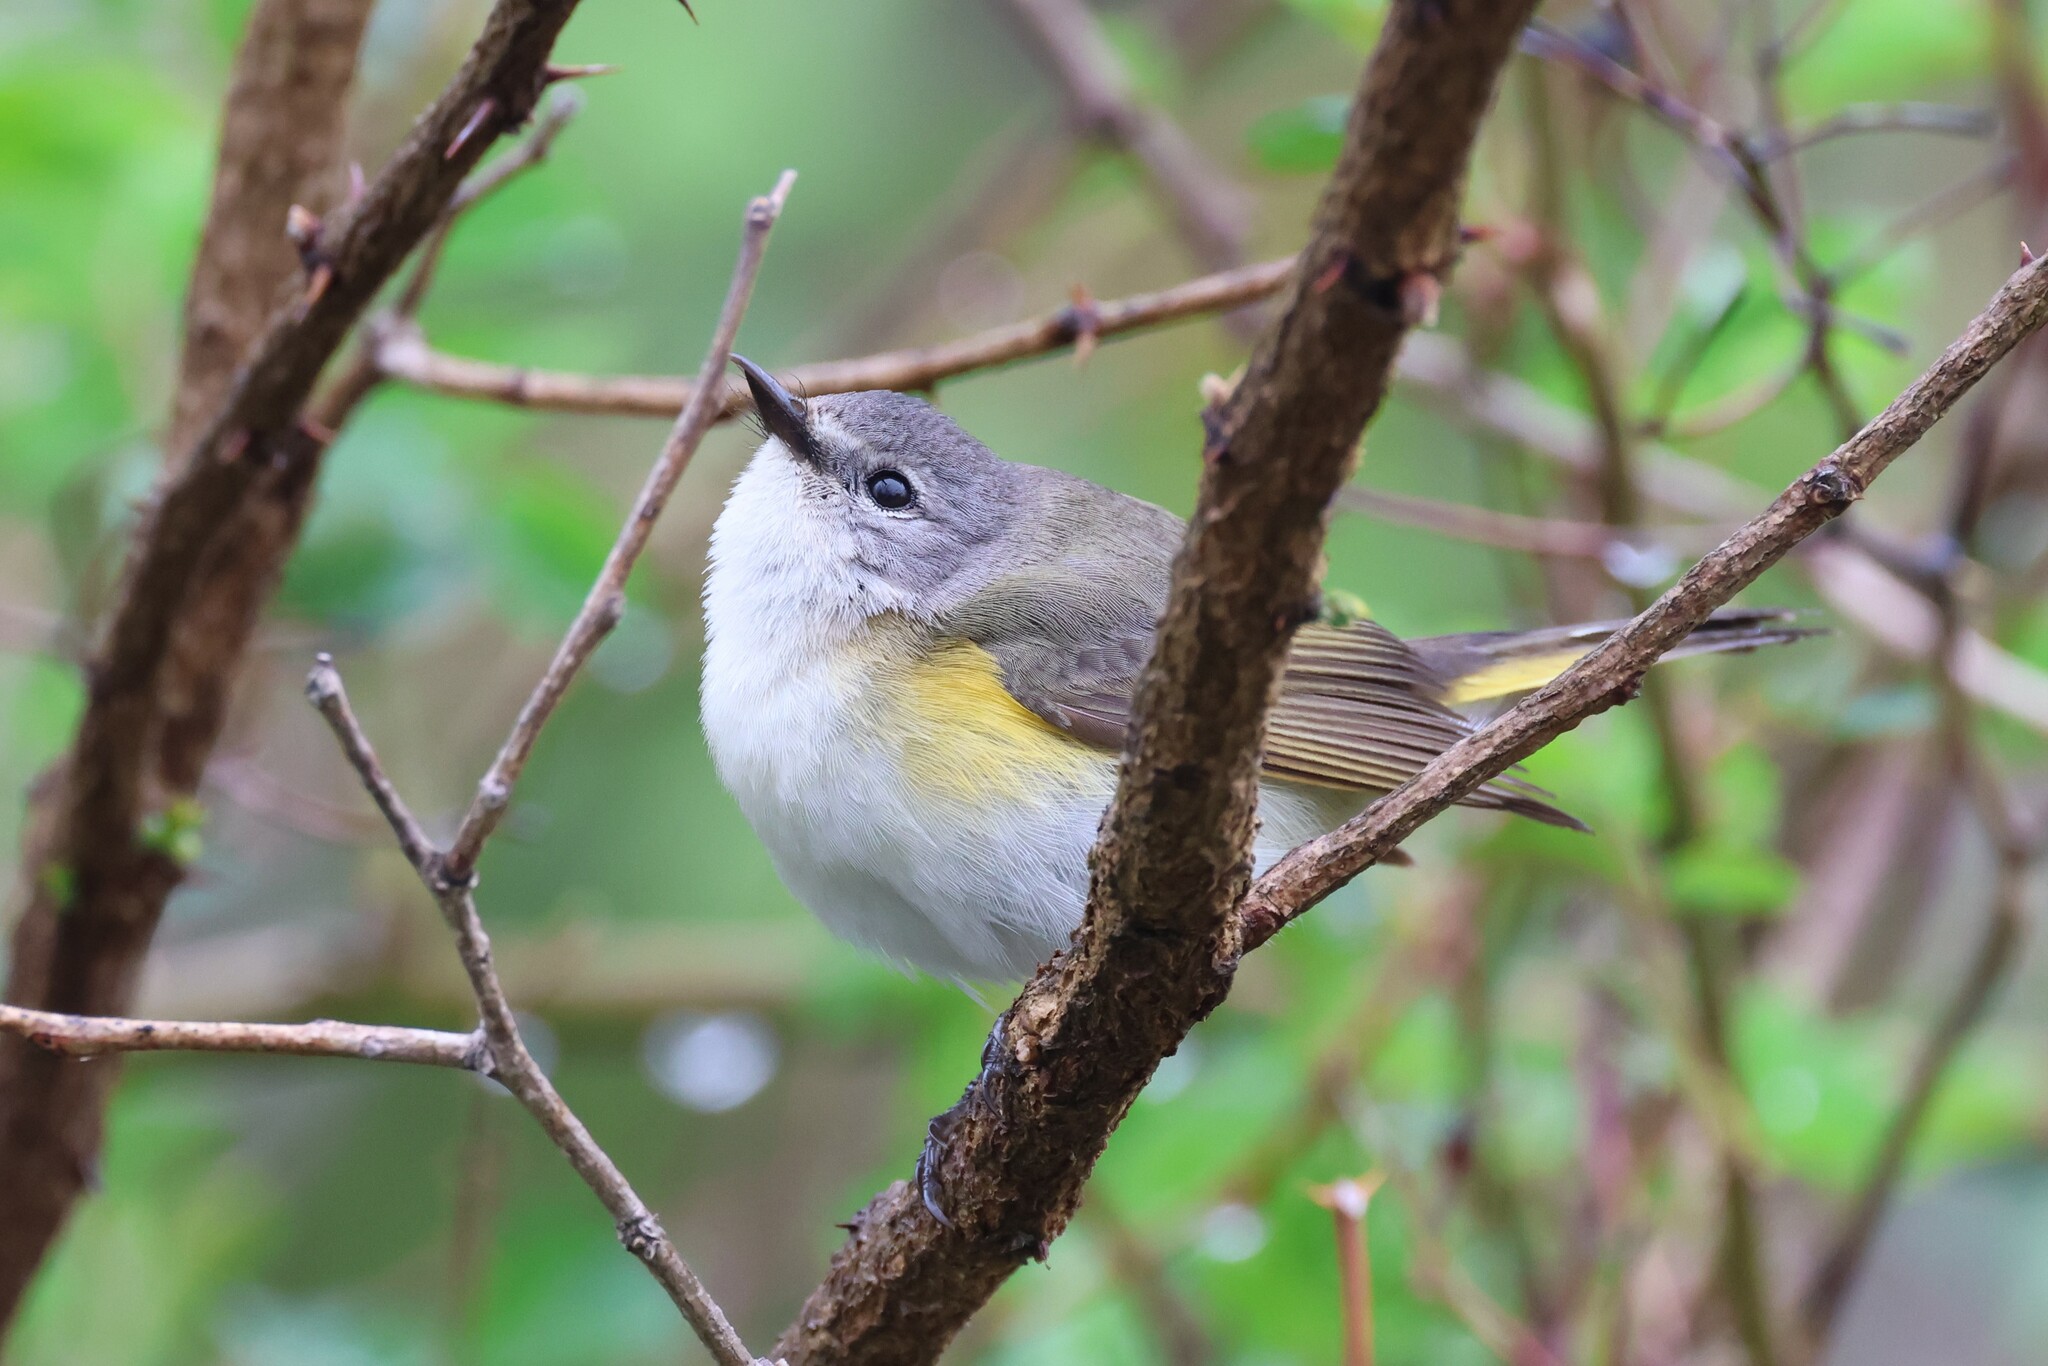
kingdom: Animalia
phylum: Chordata
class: Aves
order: Passeriformes
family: Parulidae
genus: Setophaga
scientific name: Setophaga ruticilla
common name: American redstart
